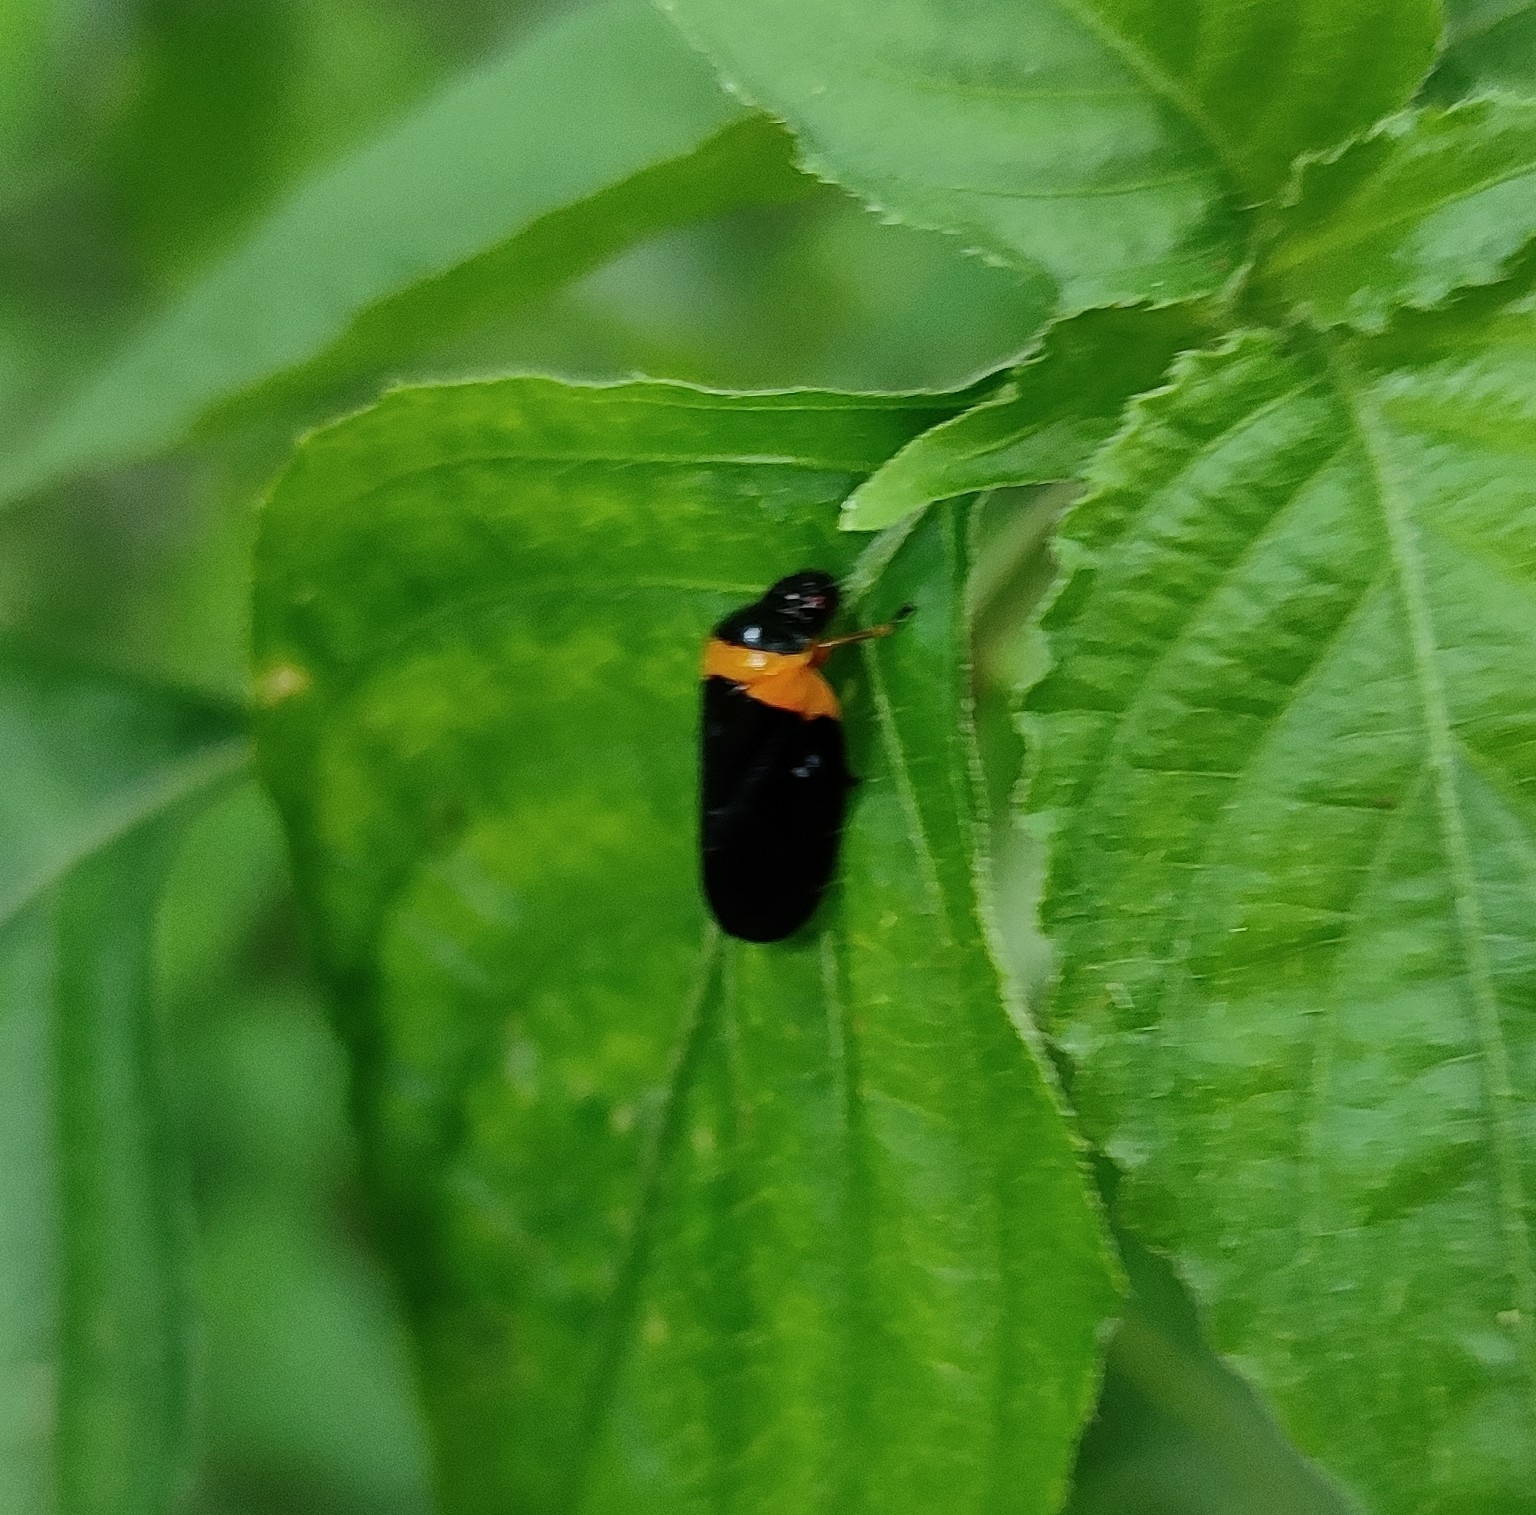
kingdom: Animalia
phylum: Arthropoda
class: Insecta
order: Hemiptera
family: Cercopidae
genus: Phymatostetha
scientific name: Phymatostetha deschampsi
